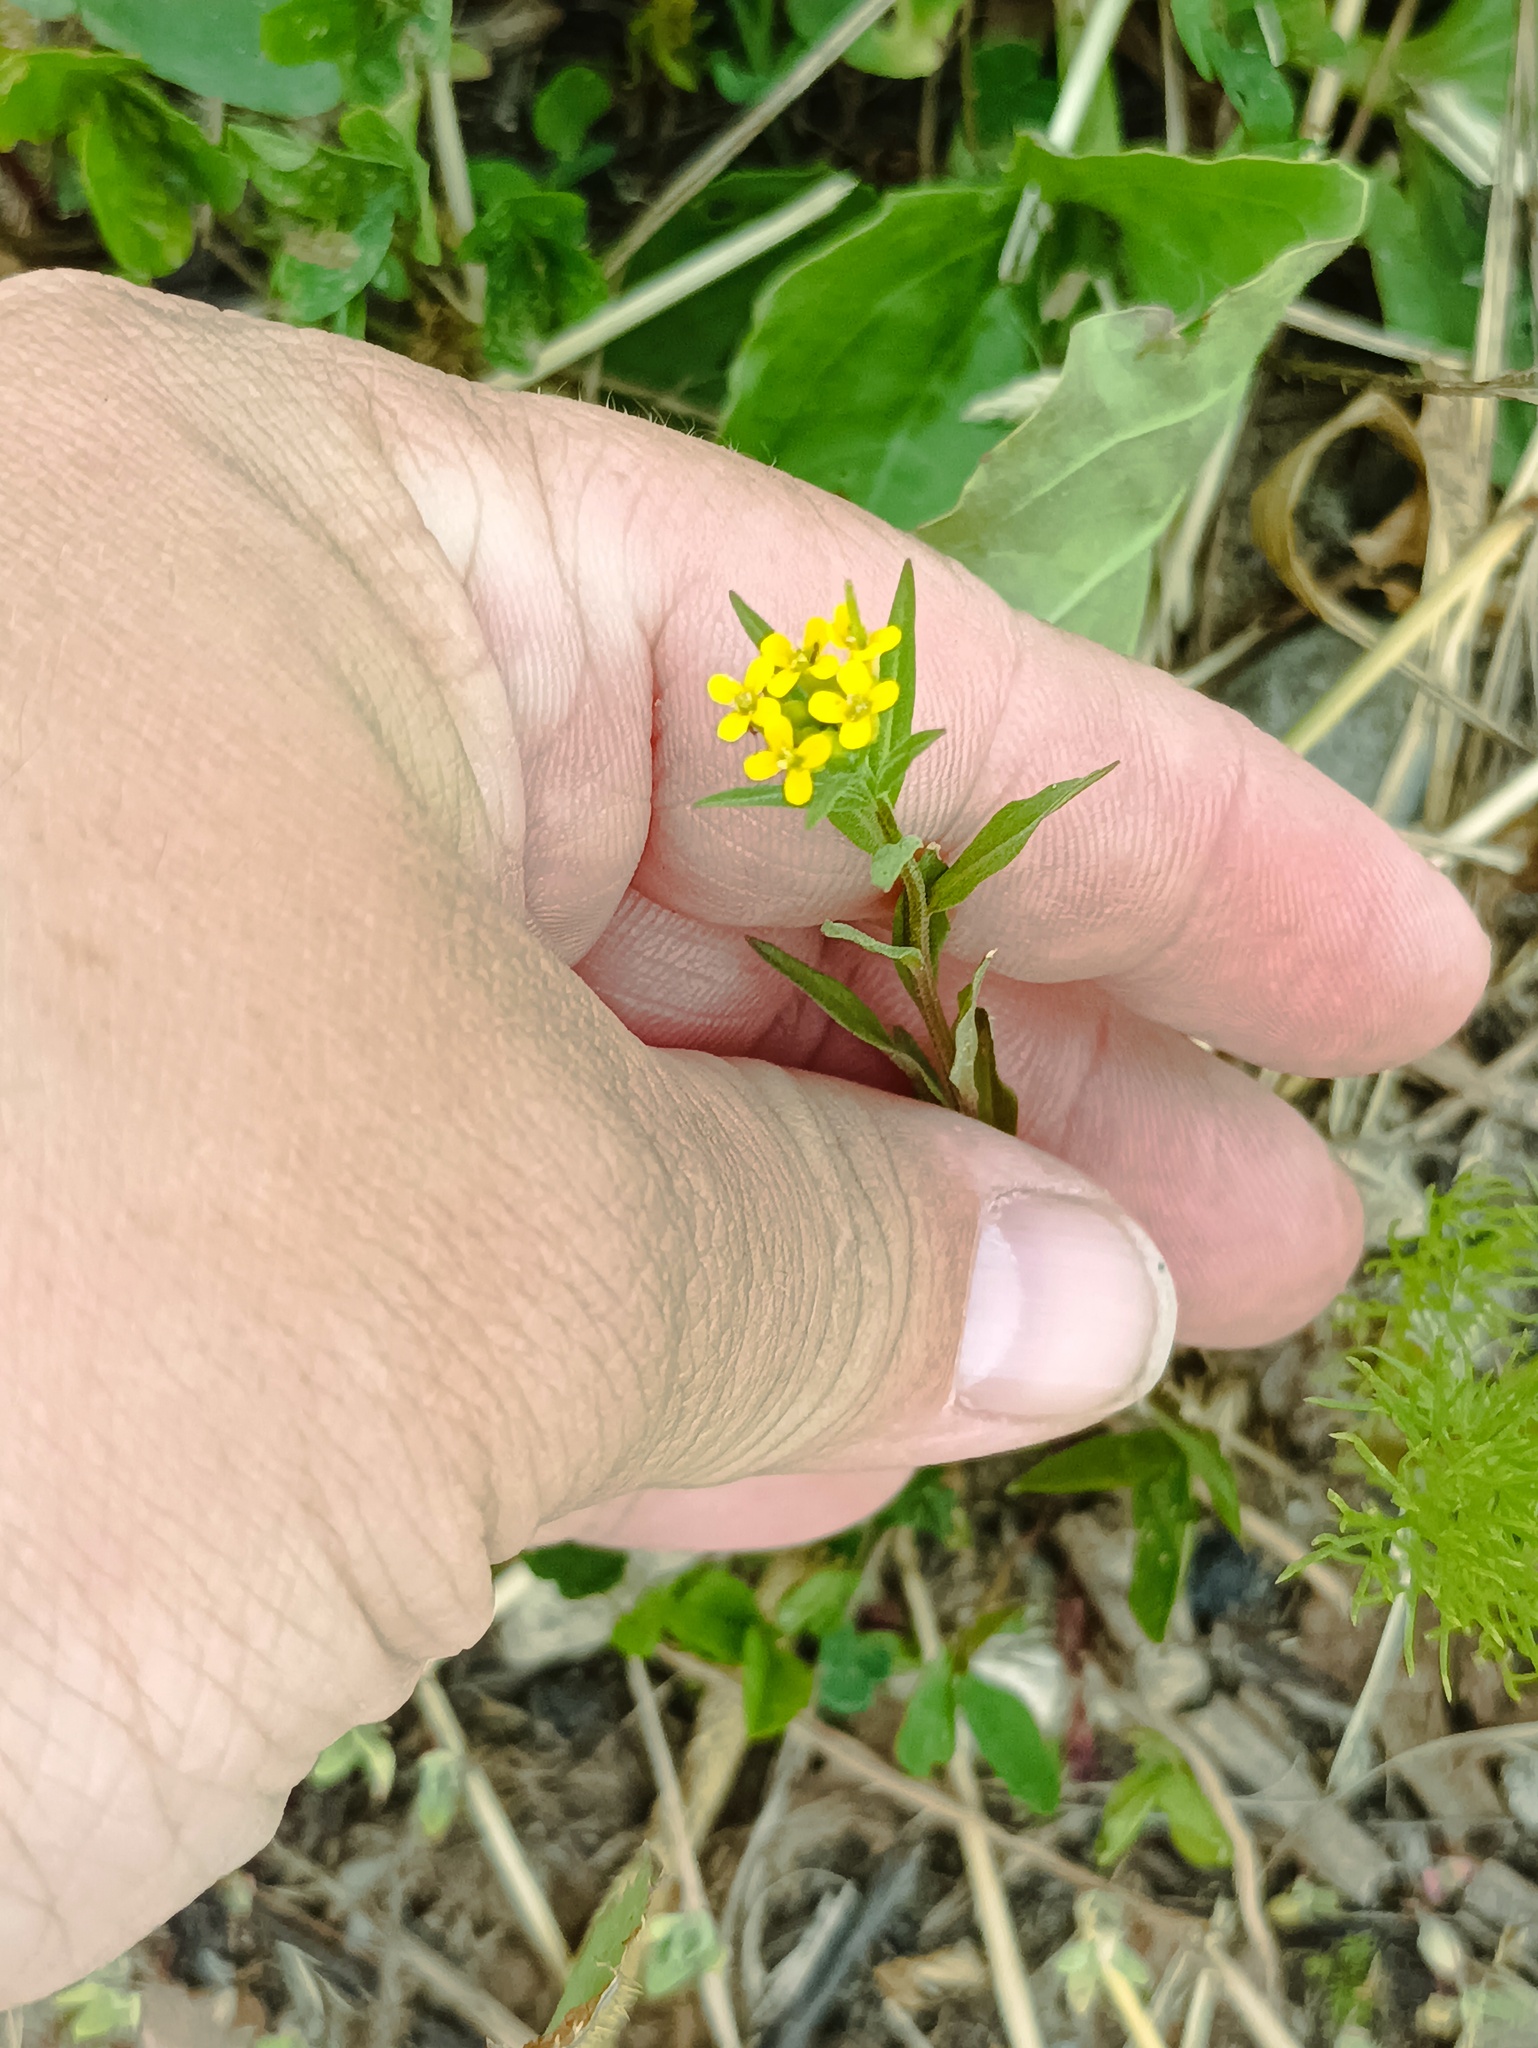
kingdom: Plantae
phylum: Tracheophyta
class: Magnoliopsida
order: Brassicales
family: Brassicaceae
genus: Erysimum
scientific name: Erysimum cheiranthoides
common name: Treacle mustard
